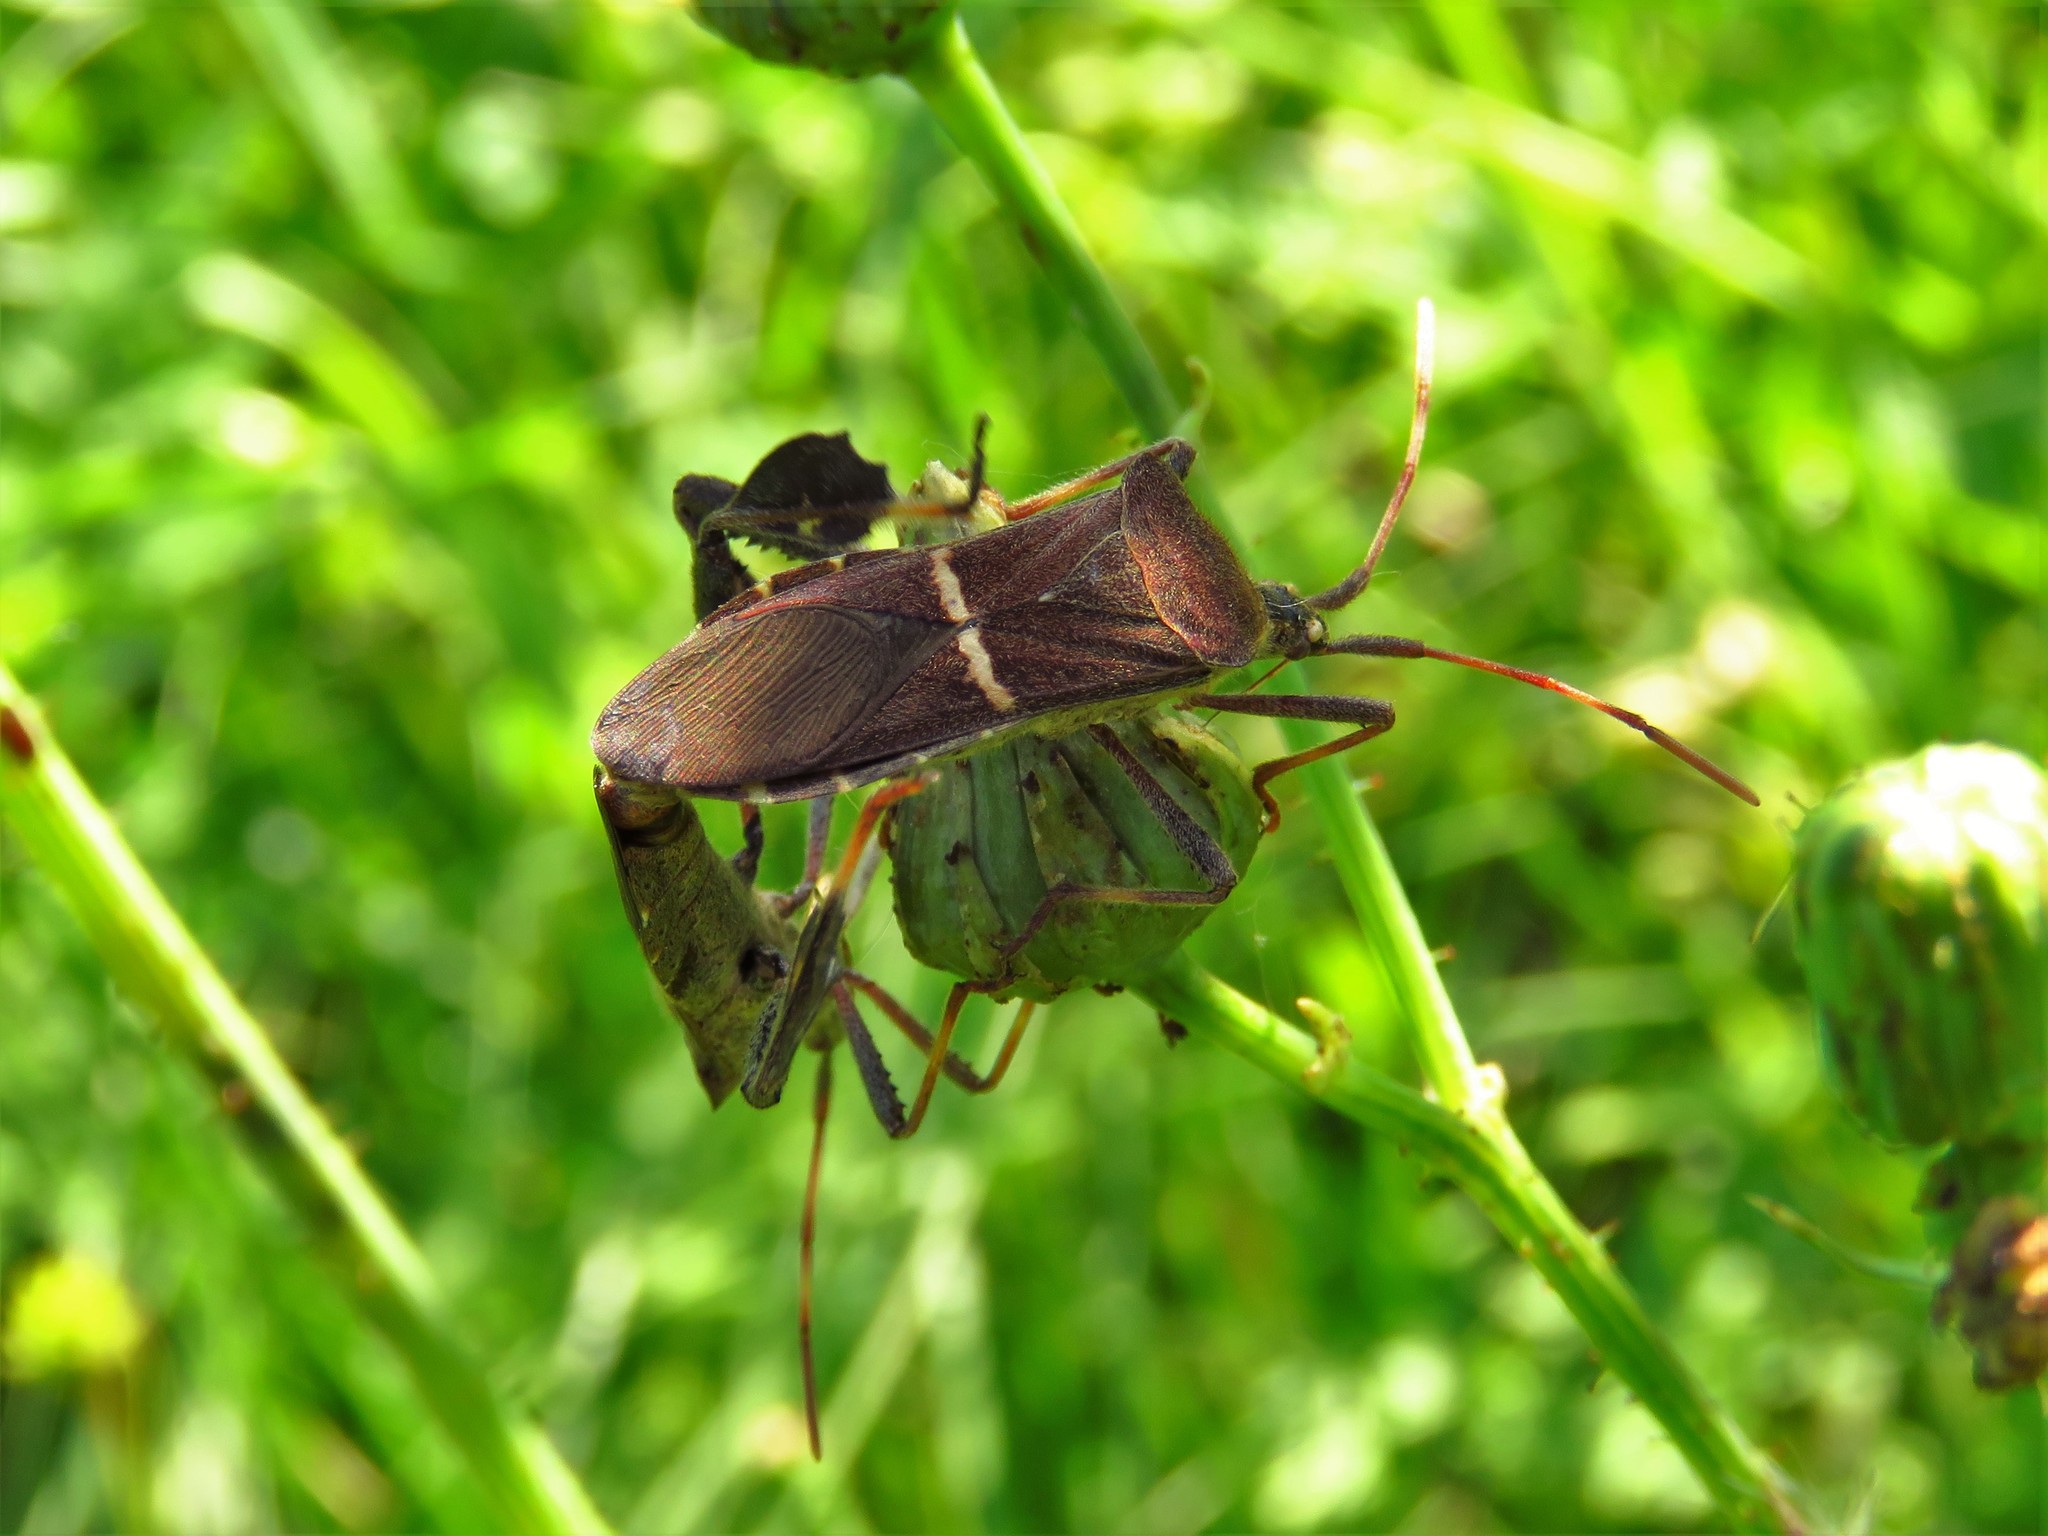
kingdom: Animalia
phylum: Arthropoda
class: Insecta
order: Hemiptera
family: Coreidae
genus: Leptoglossus
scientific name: Leptoglossus phyllopus
